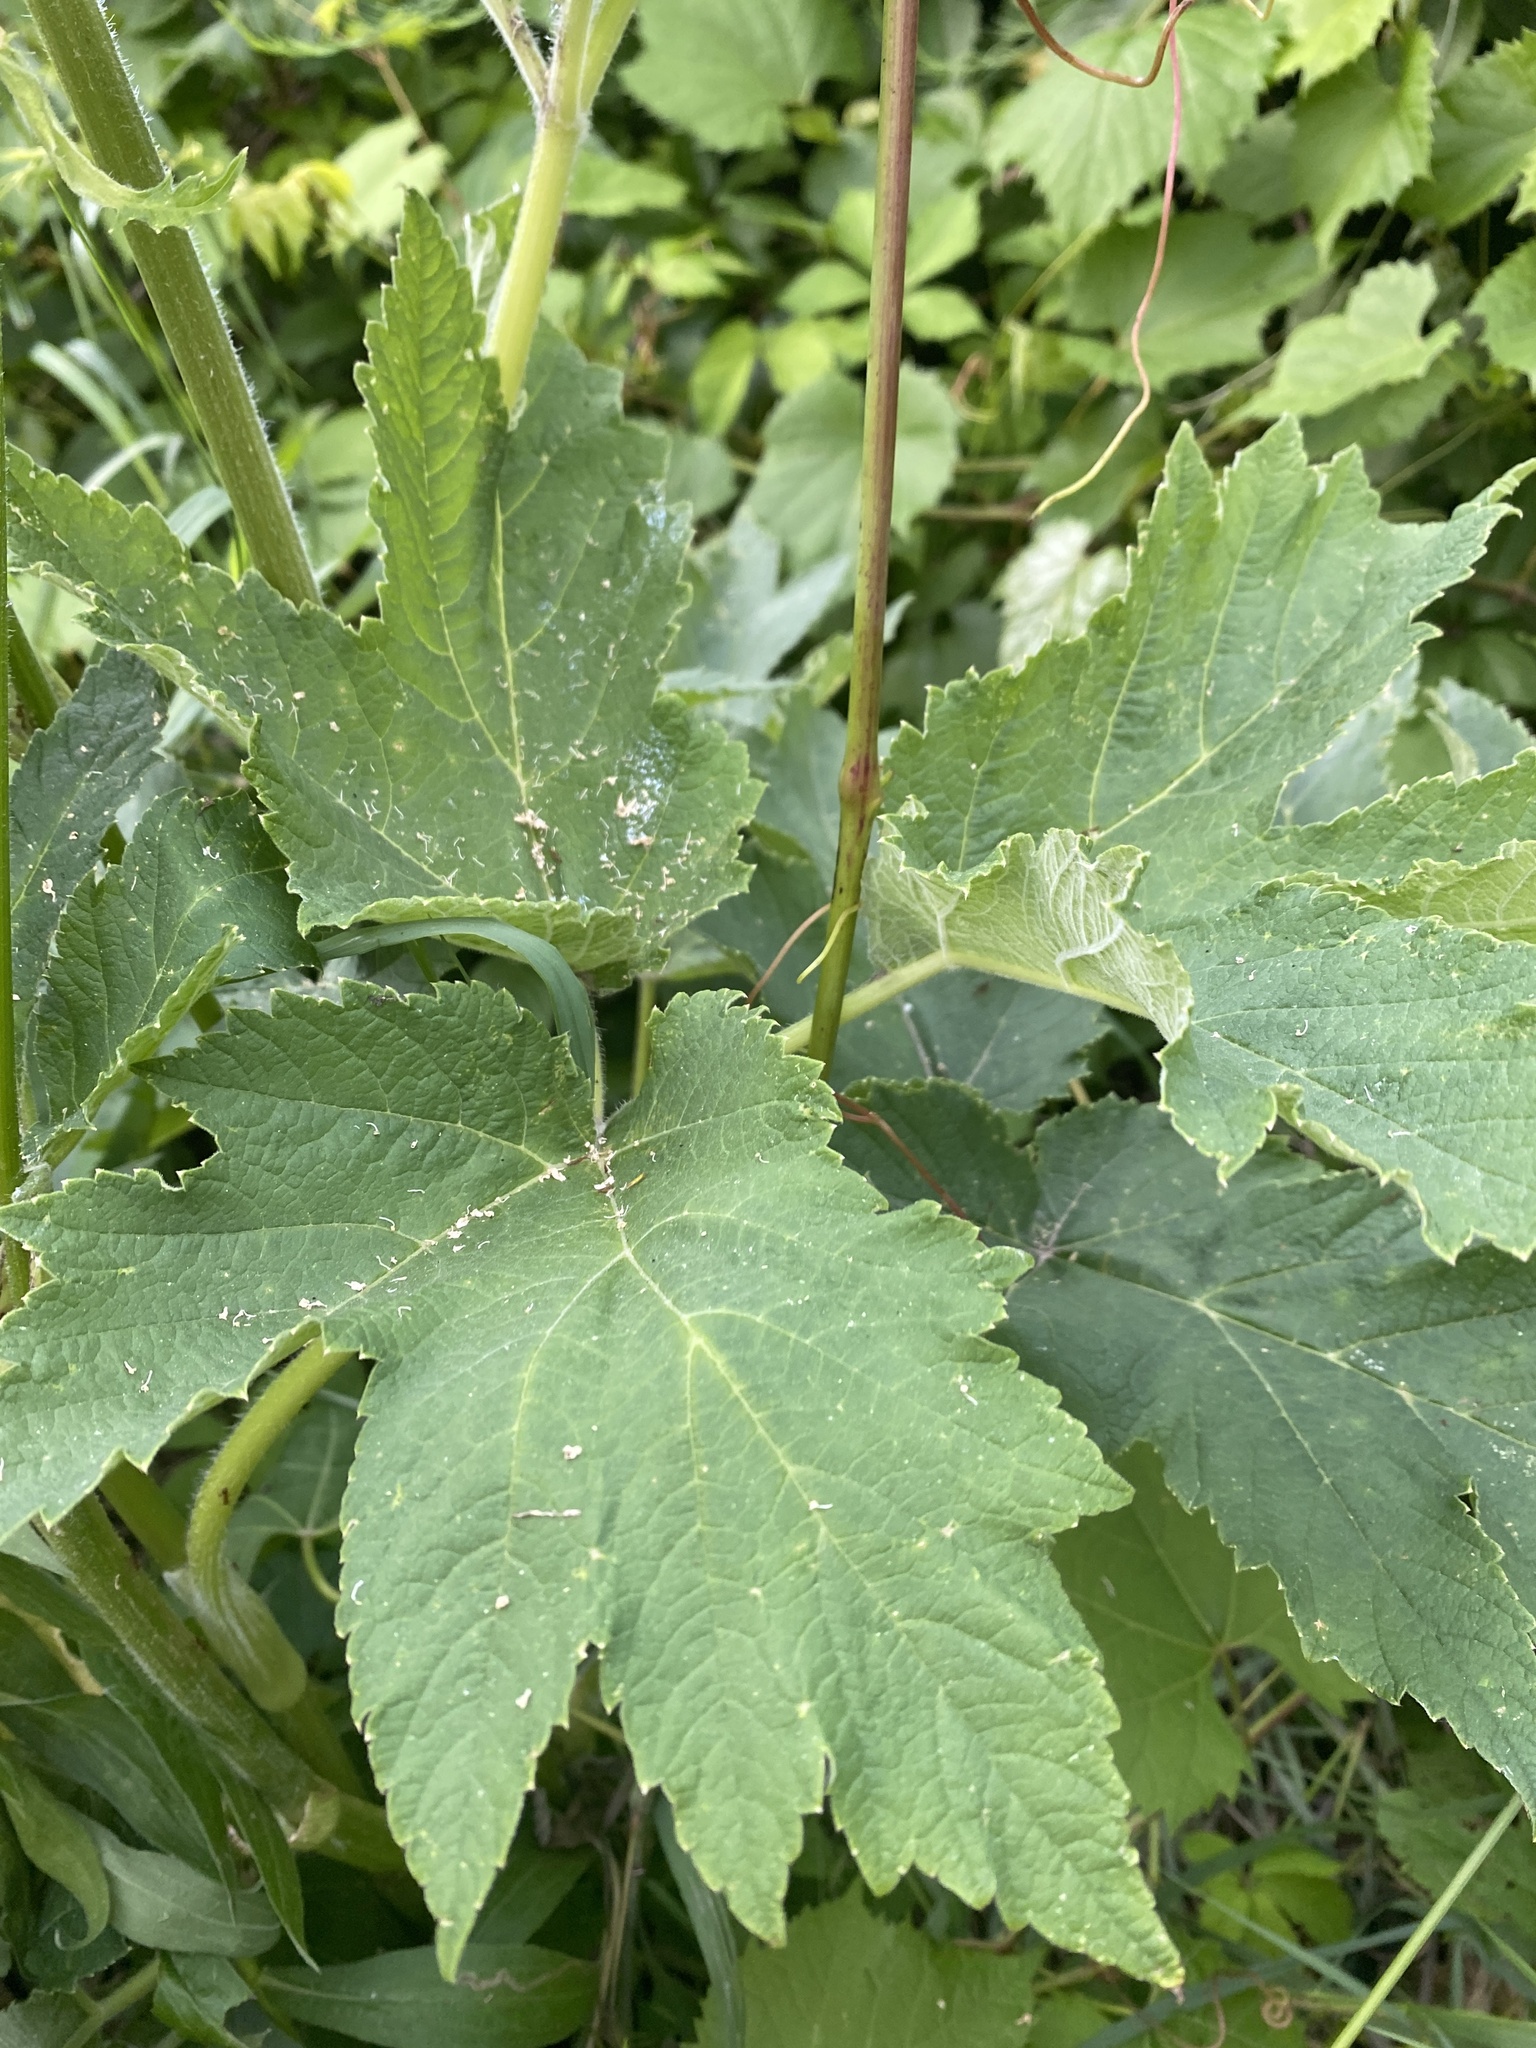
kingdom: Plantae
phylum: Tracheophyta
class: Magnoliopsida
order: Apiales
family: Apiaceae
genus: Heracleum
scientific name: Heracleum maximum
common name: American cow parsnip
